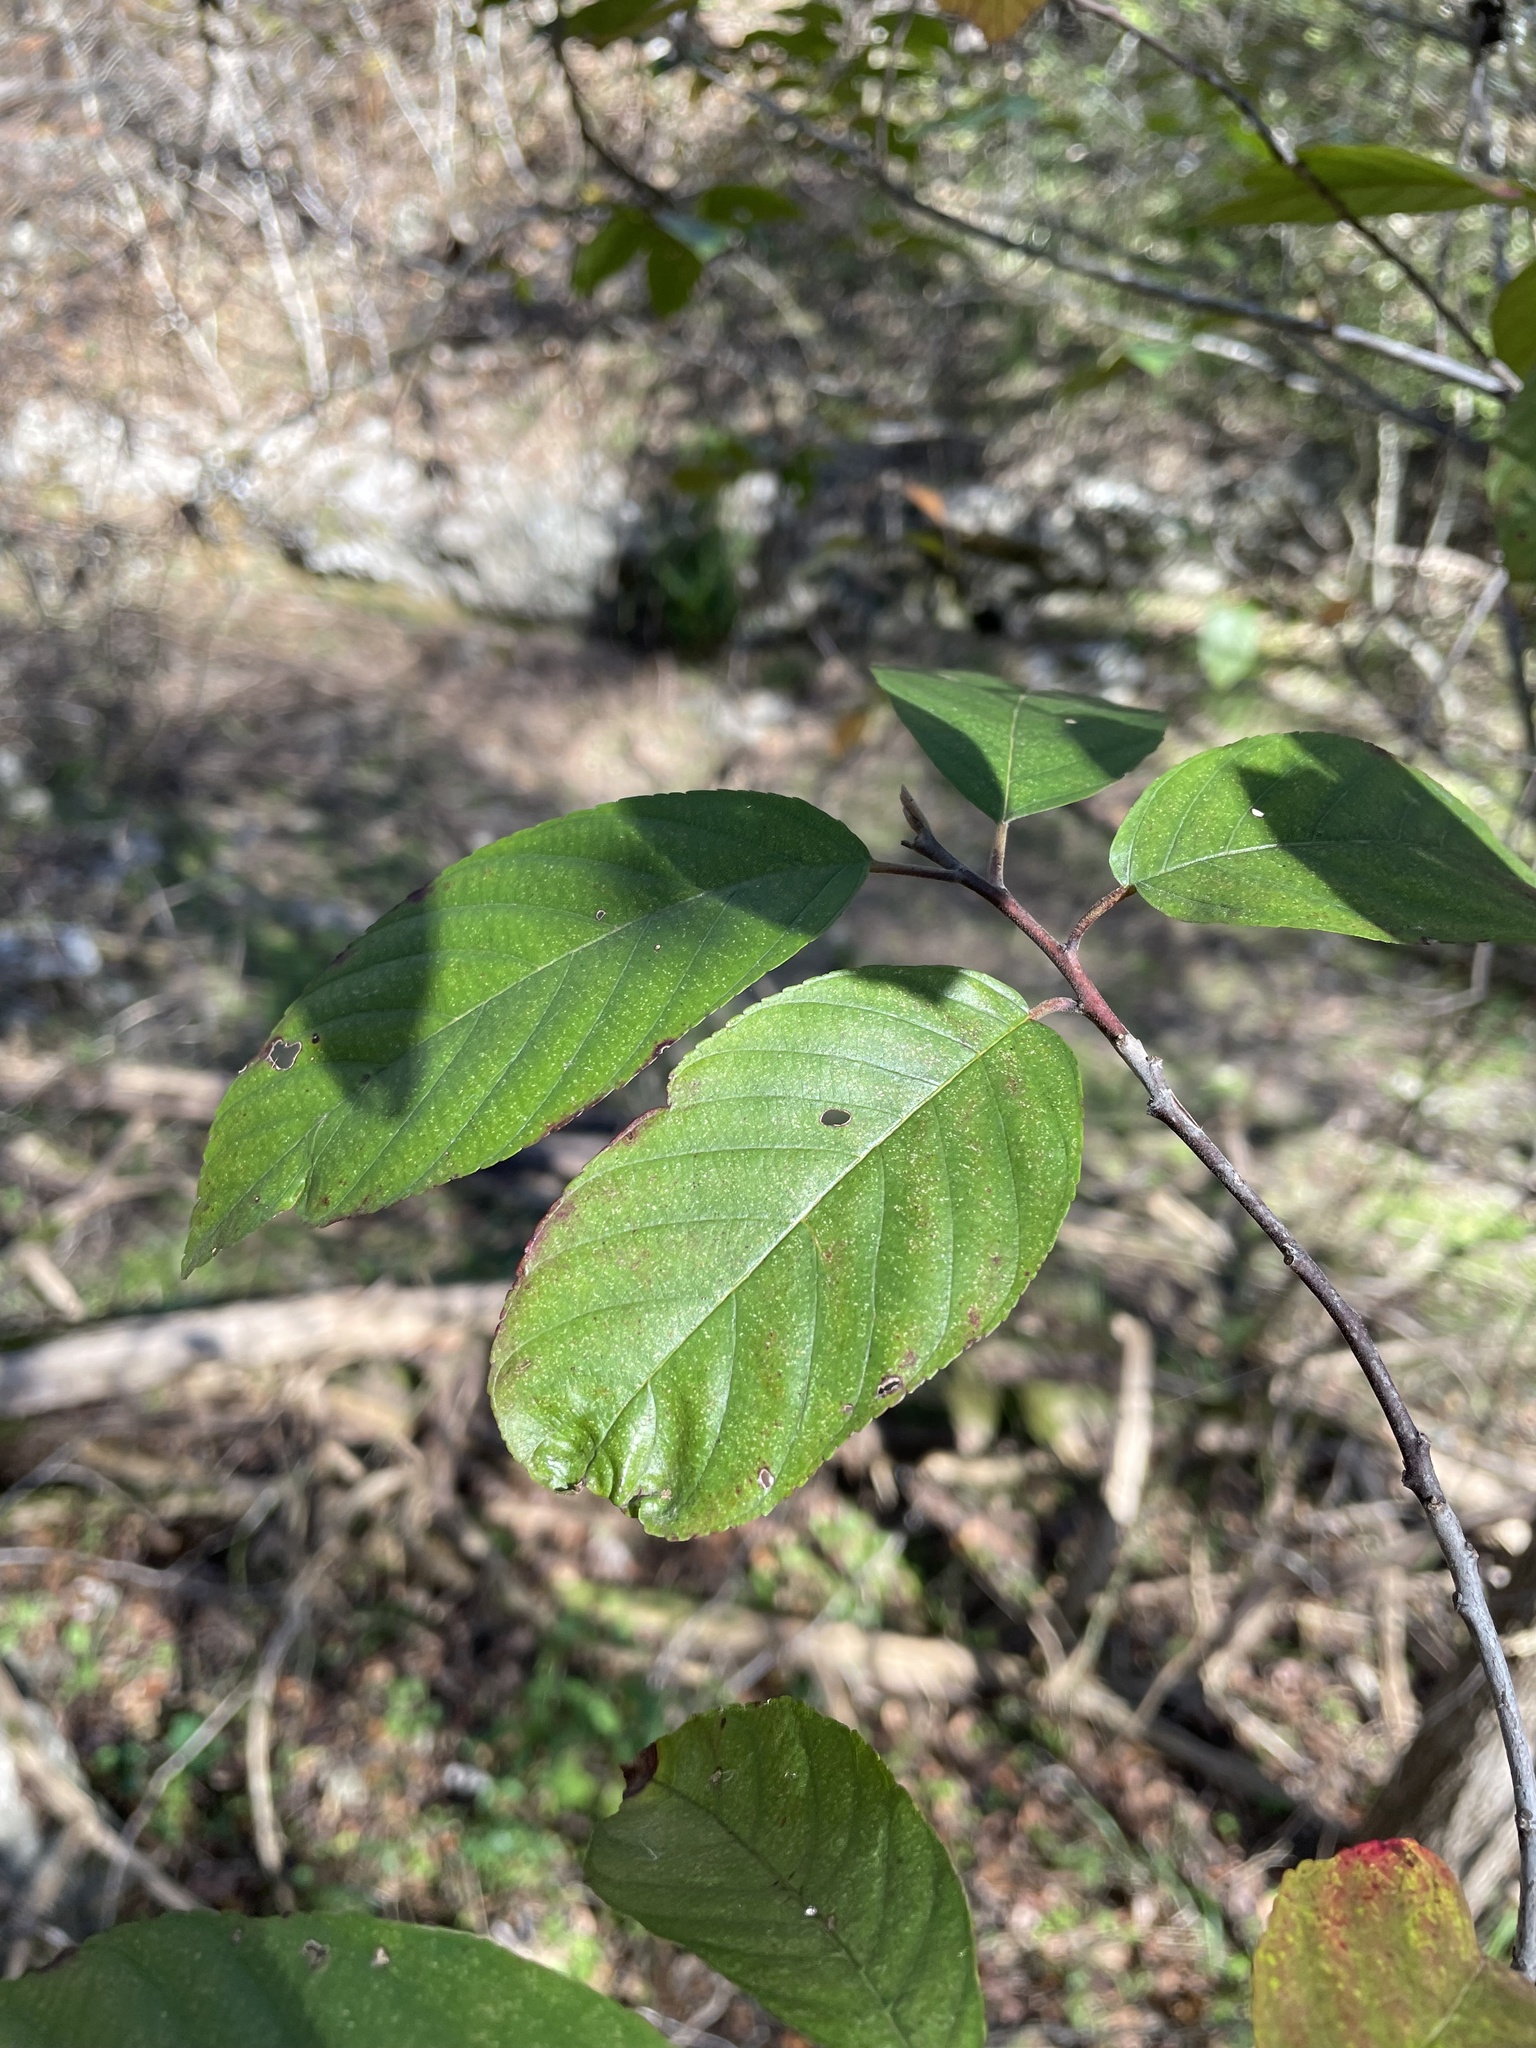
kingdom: Plantae
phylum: Tracheophyta
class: Magnoliopsida
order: Rosales
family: Rhamnaceae
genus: Frangula
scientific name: Frangula caroliniana
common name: Carolina buckthorn
